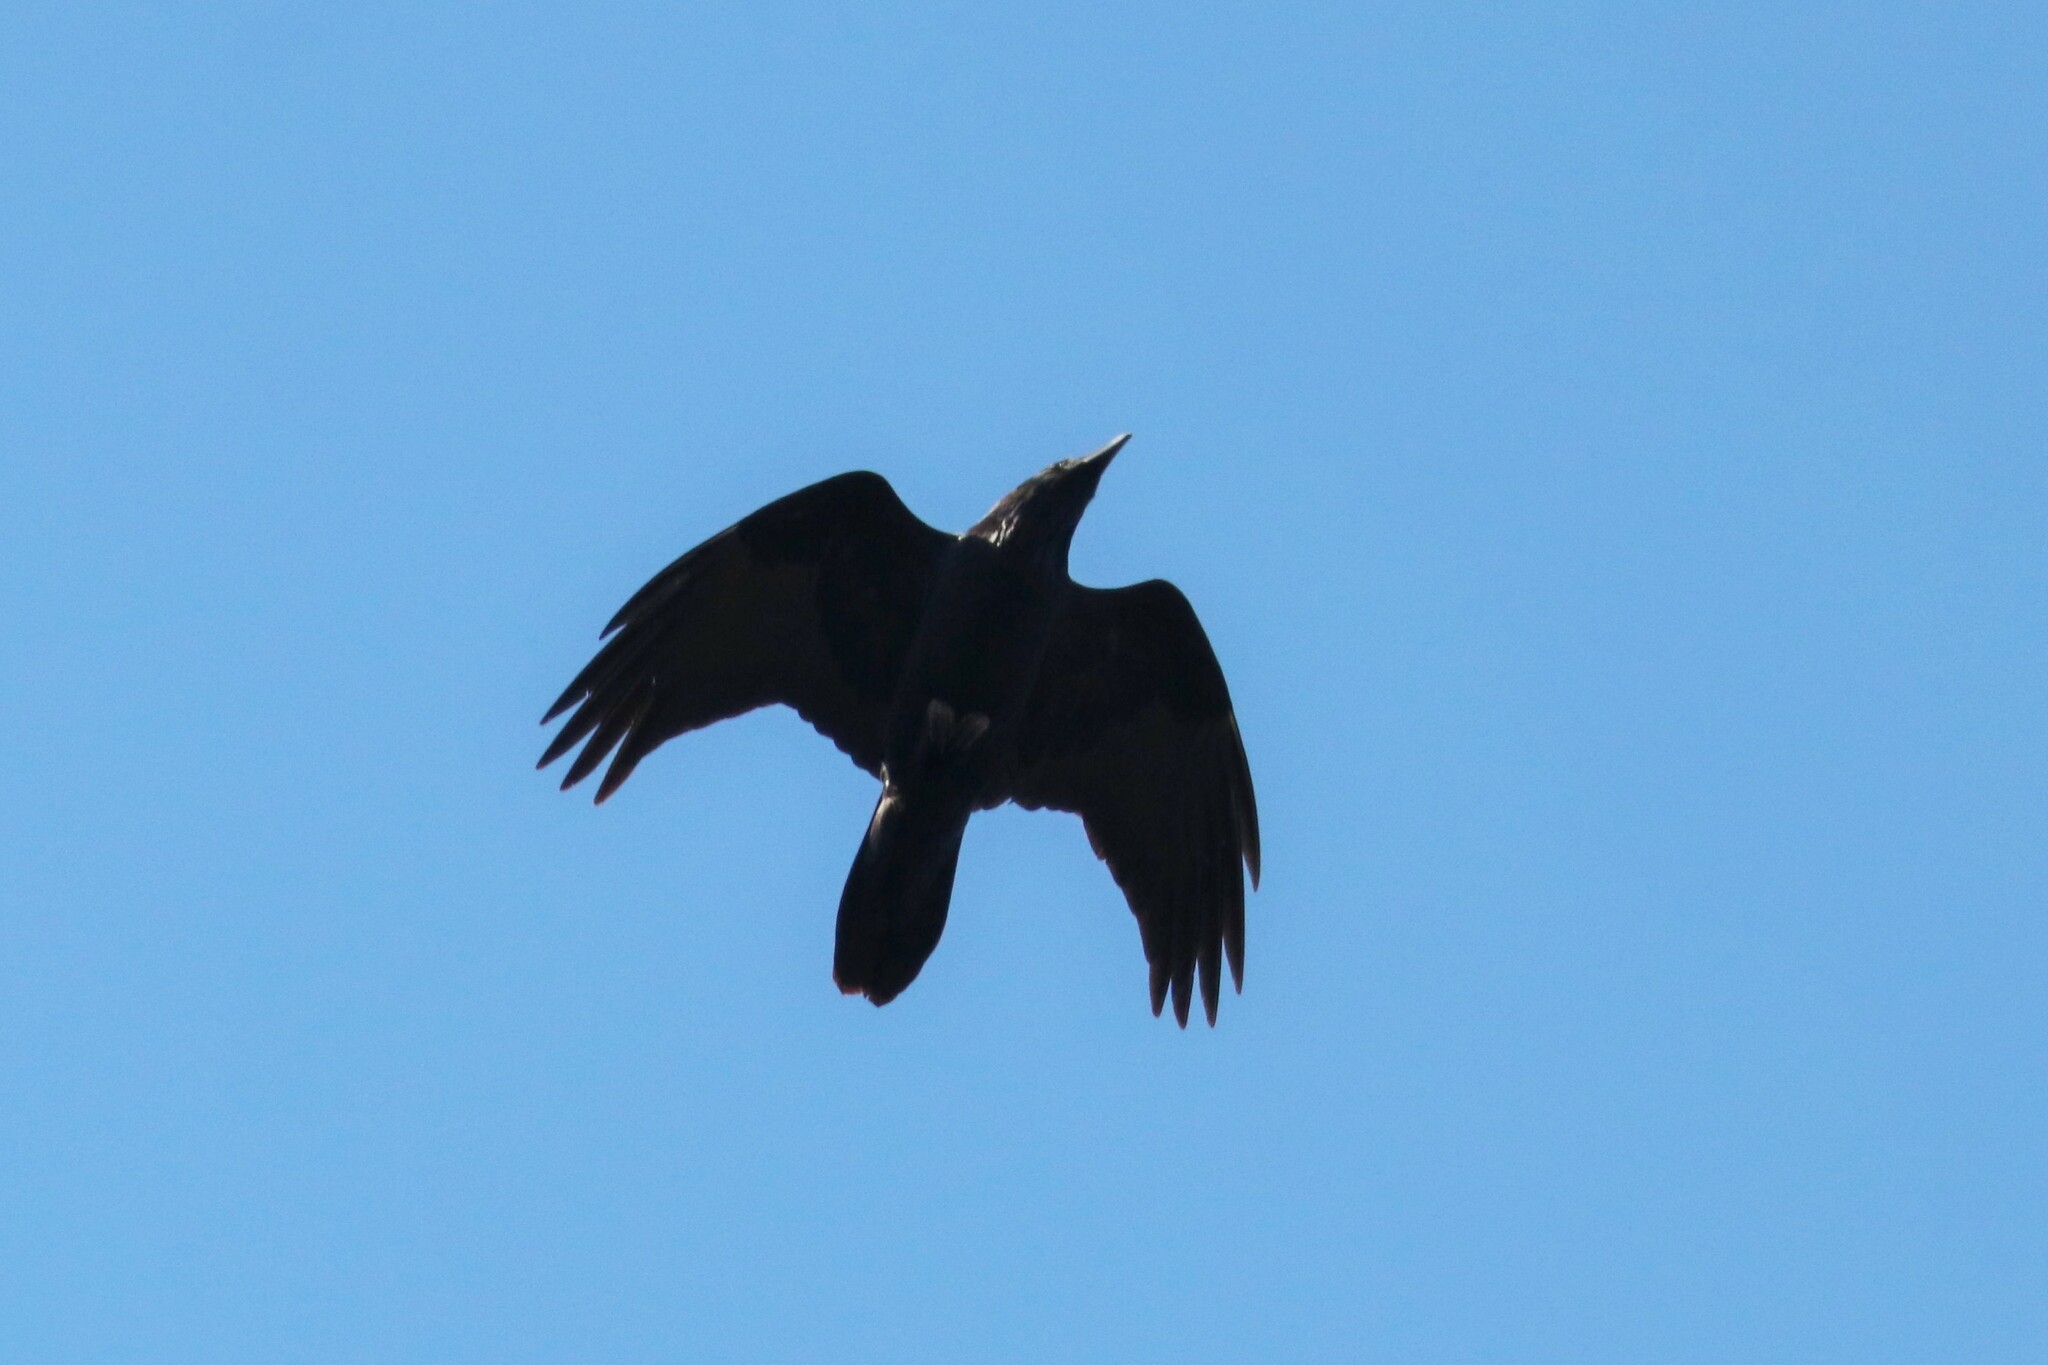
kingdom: Animalia
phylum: Chordata
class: Aves
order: Passeriformes
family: Corvidae
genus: Corvus
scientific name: Corvus corax
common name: Common raven
